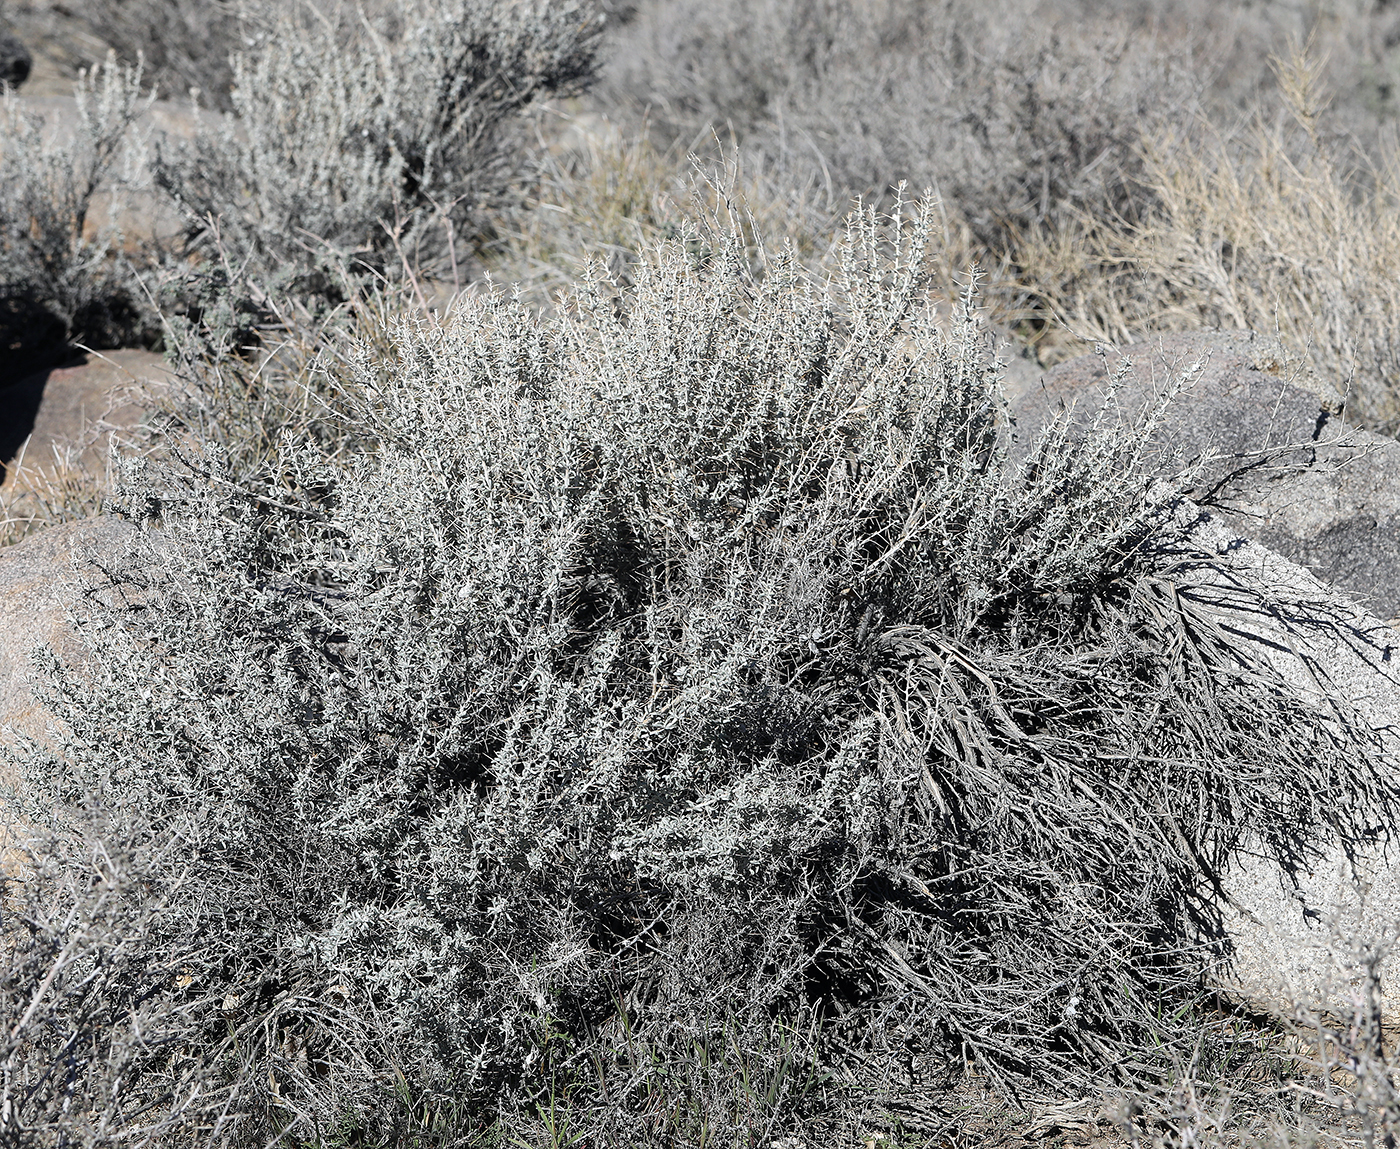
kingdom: Plantae
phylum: Tracheophyta
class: Magnoliopsida
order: Asterales
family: Asteraceae
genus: Tetradymia
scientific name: Tetradymia stenolepis
